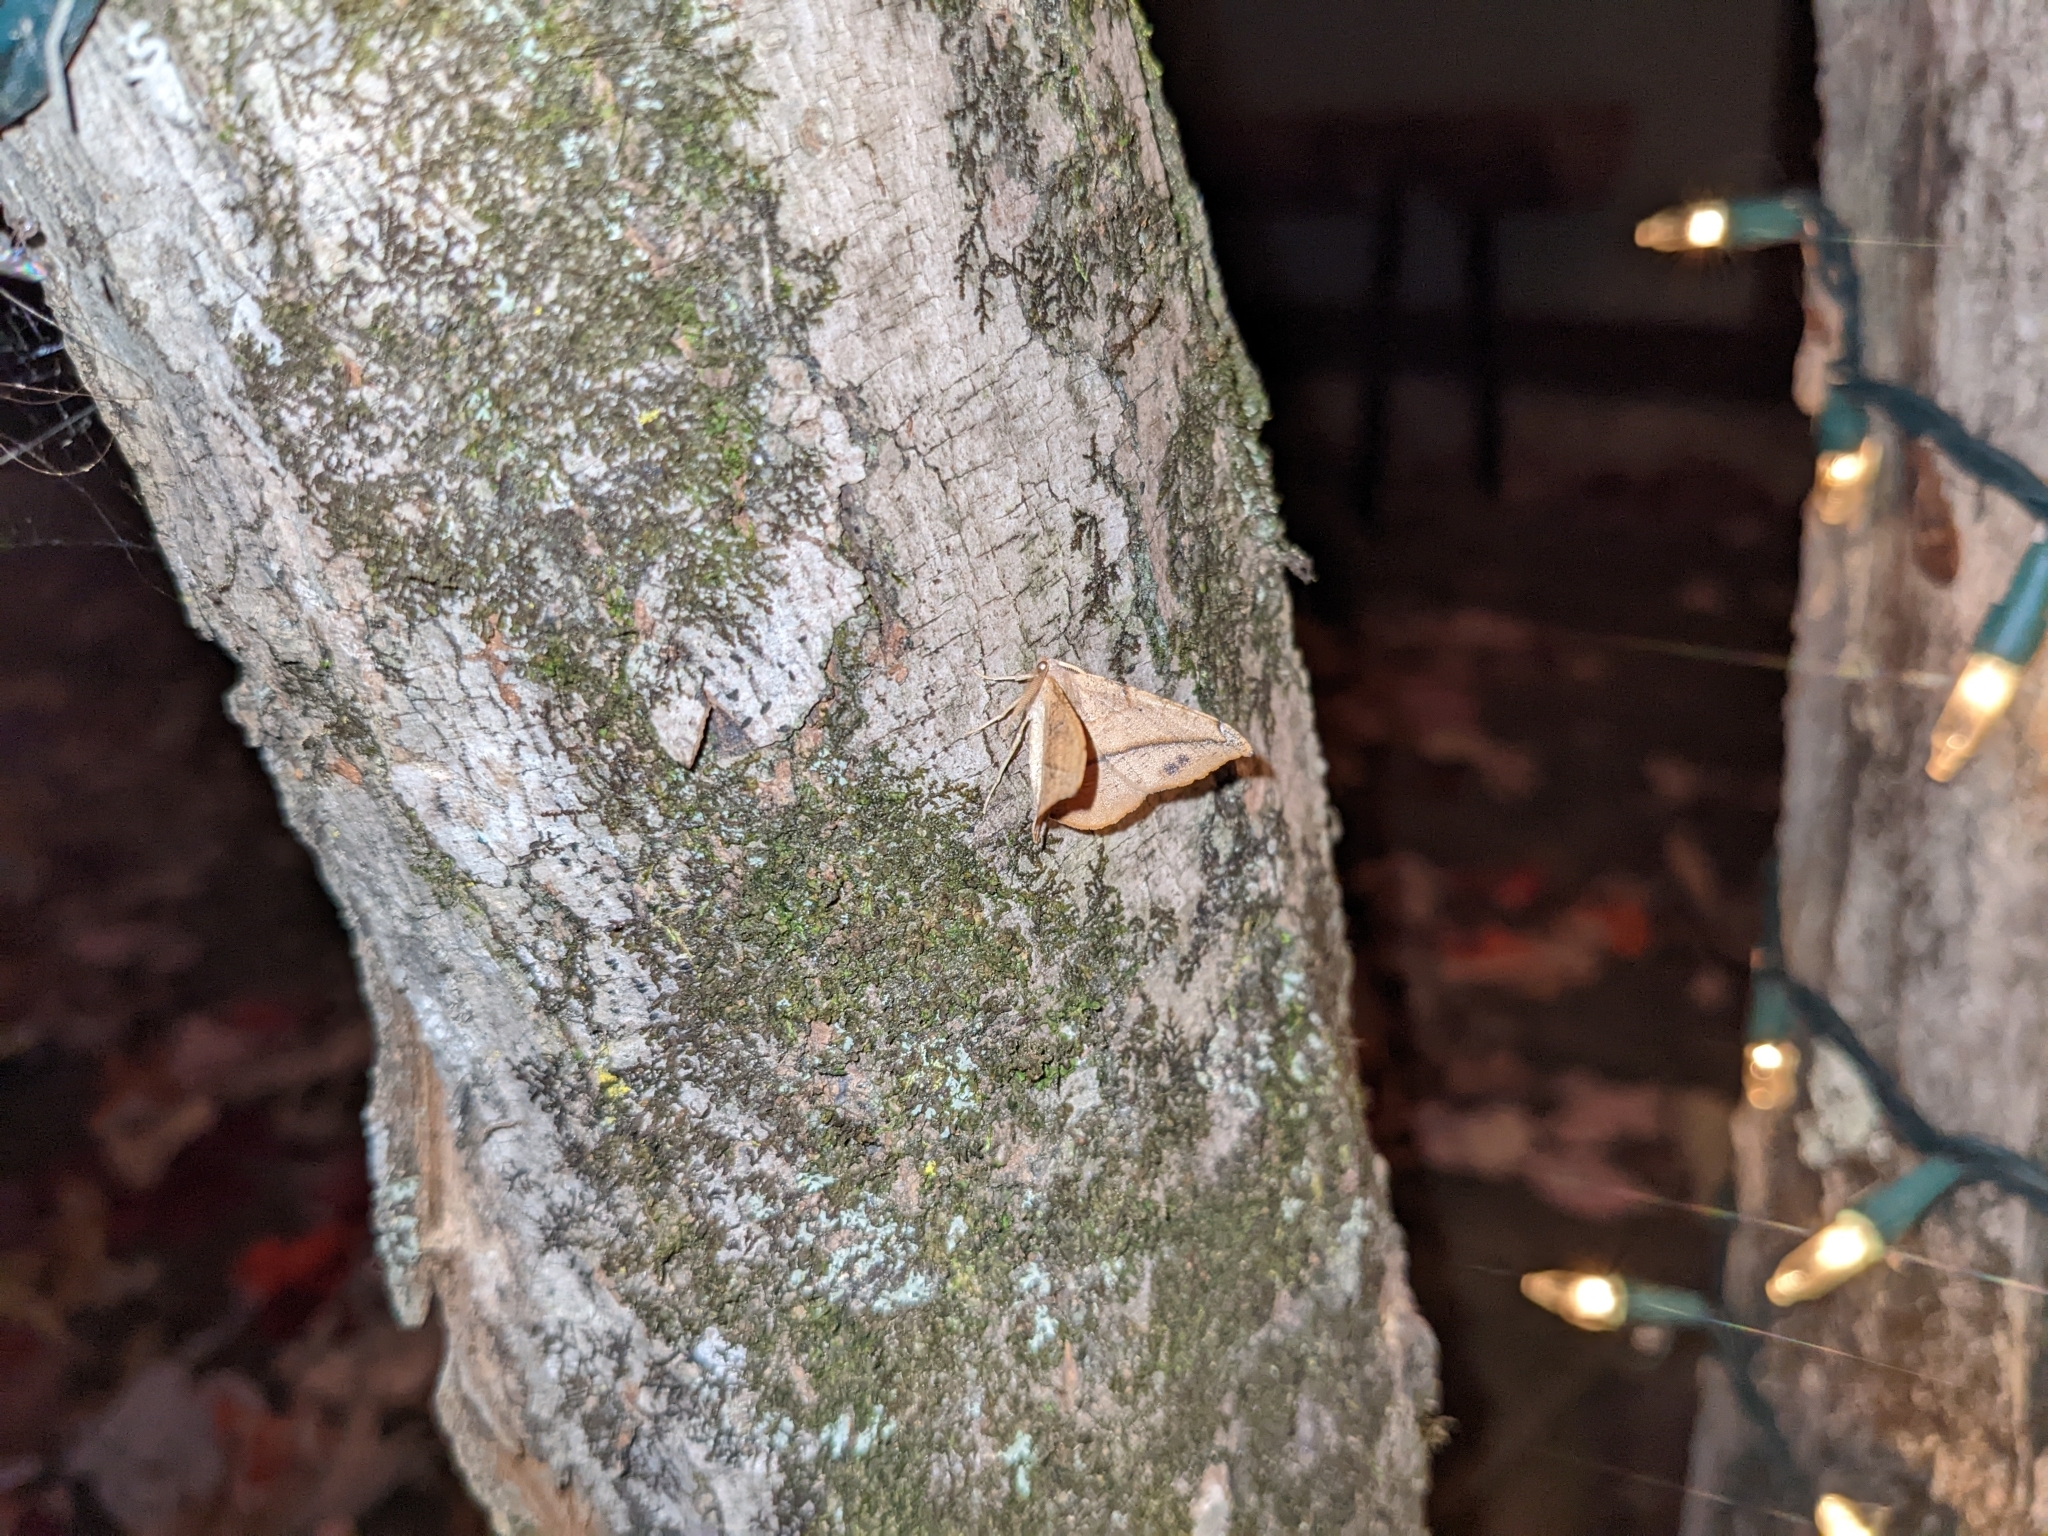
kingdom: Animalia
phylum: Arthropoda
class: Insecta
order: Lepidoptera
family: Geometridae
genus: Patalene
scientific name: Patalene olyzonaria
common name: Juniper geometer moth
